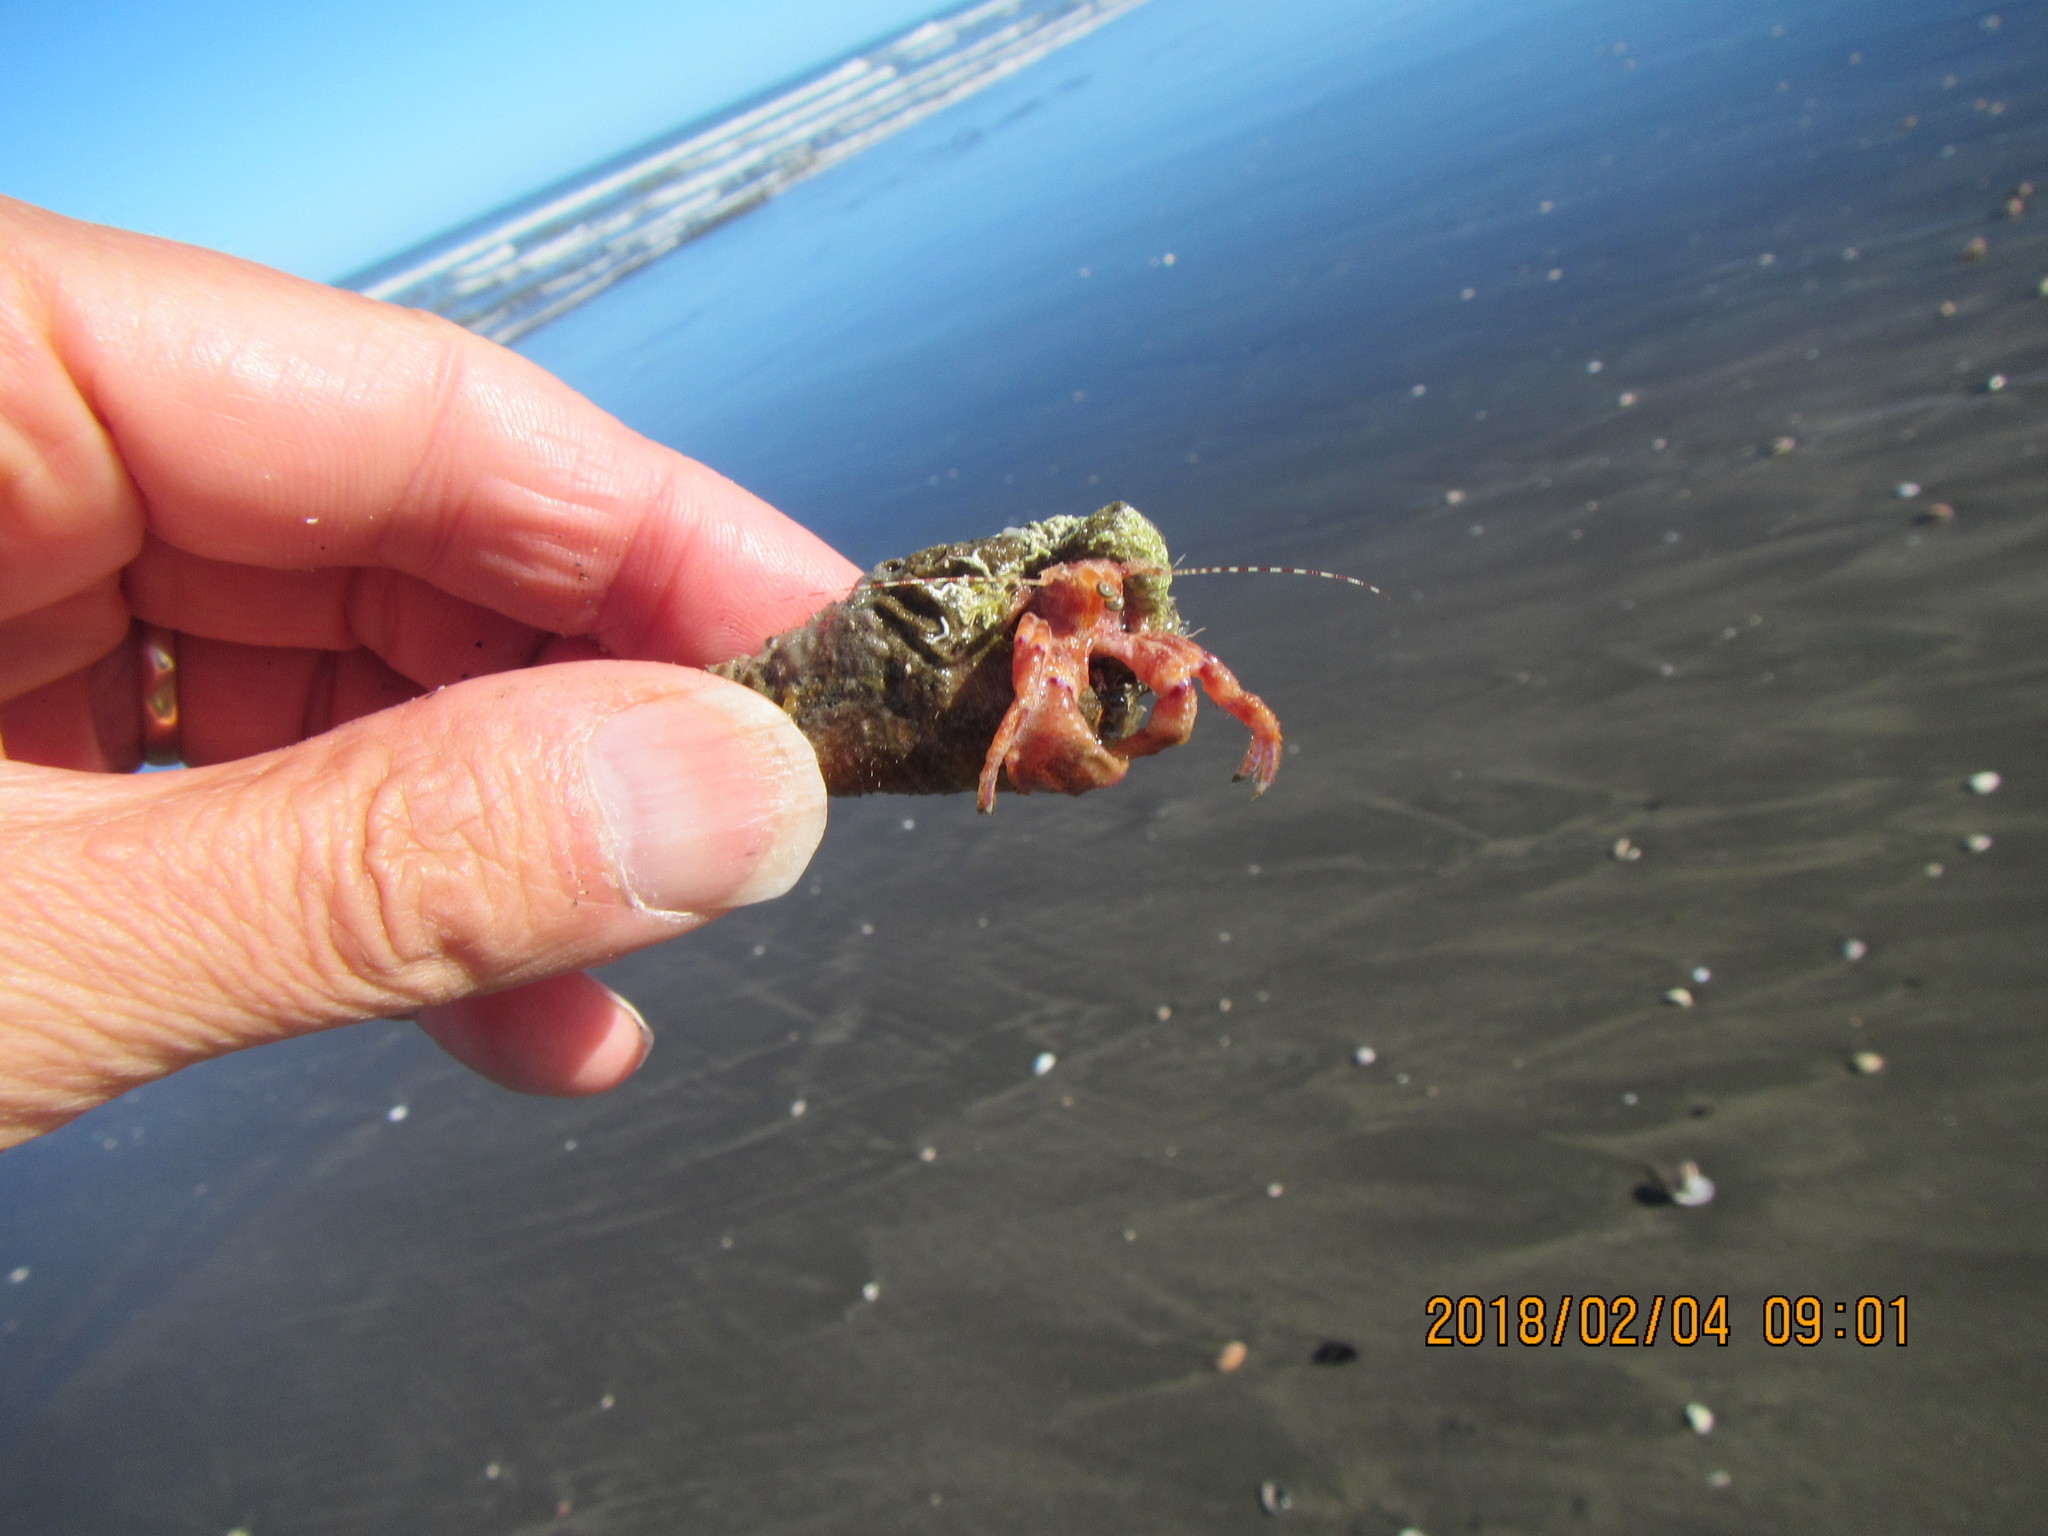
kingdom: Animalia
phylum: Arthropoda
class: Malacostraca
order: Decapoda
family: Paguridae
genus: Diacanthurus
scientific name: Diacanthurus spinulimanus
